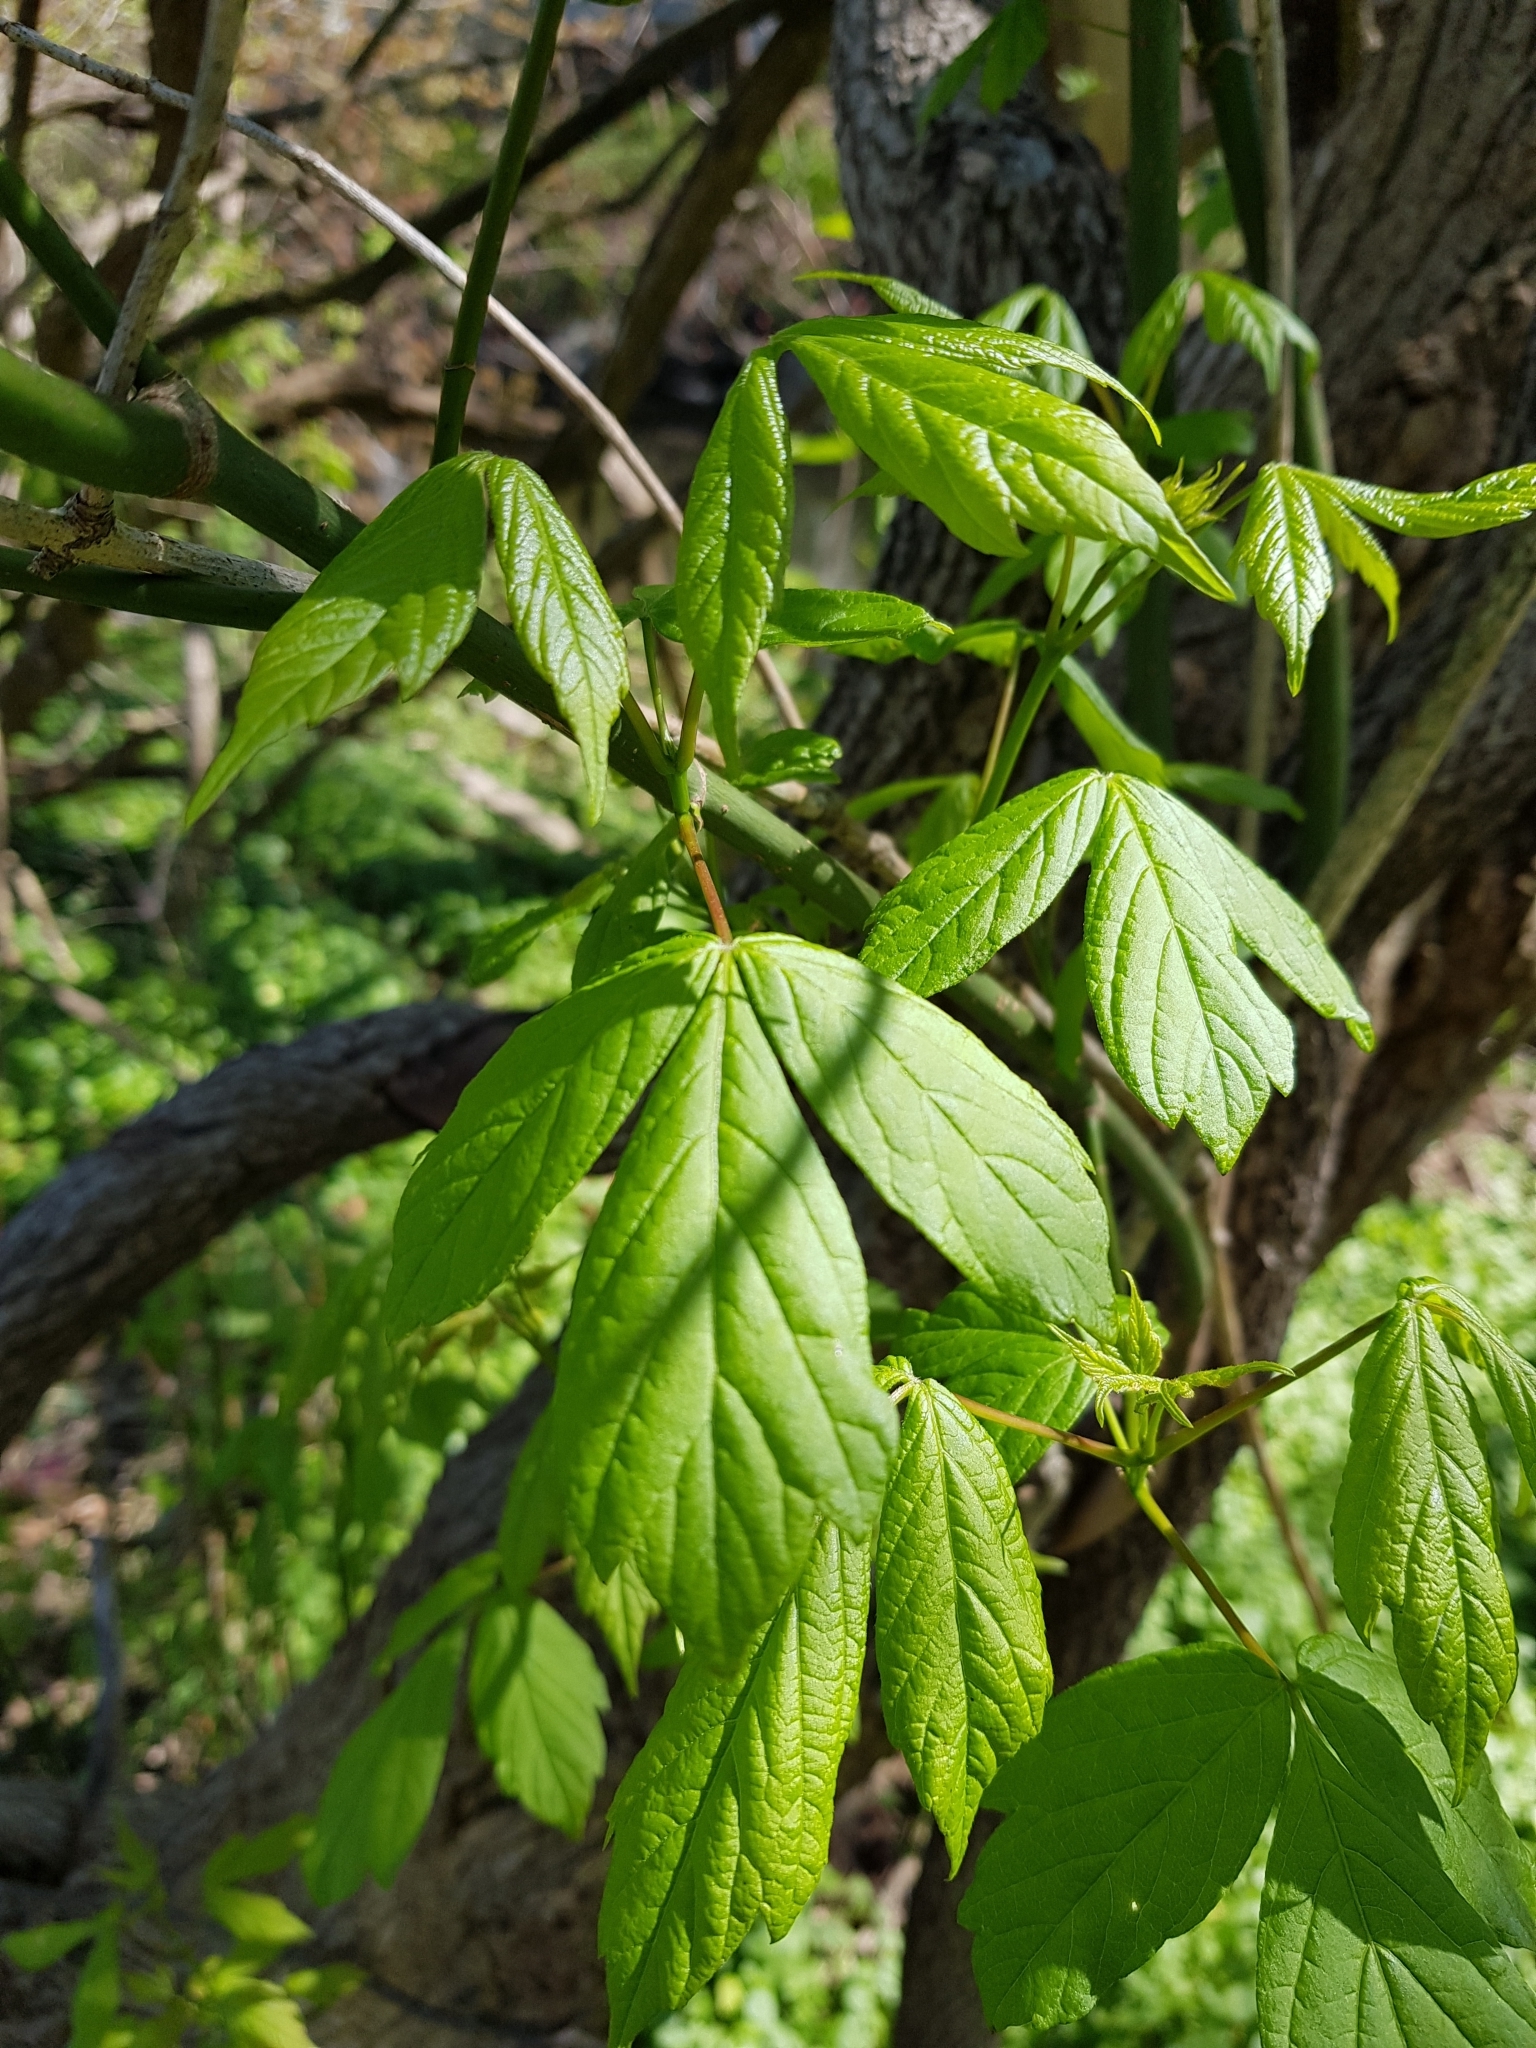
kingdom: Plantae
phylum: Tracheophyta
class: Magnoliopsida
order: Sapindales
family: Sapindaceae
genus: Acer
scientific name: Acer negundo
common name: Ashleaf maple
